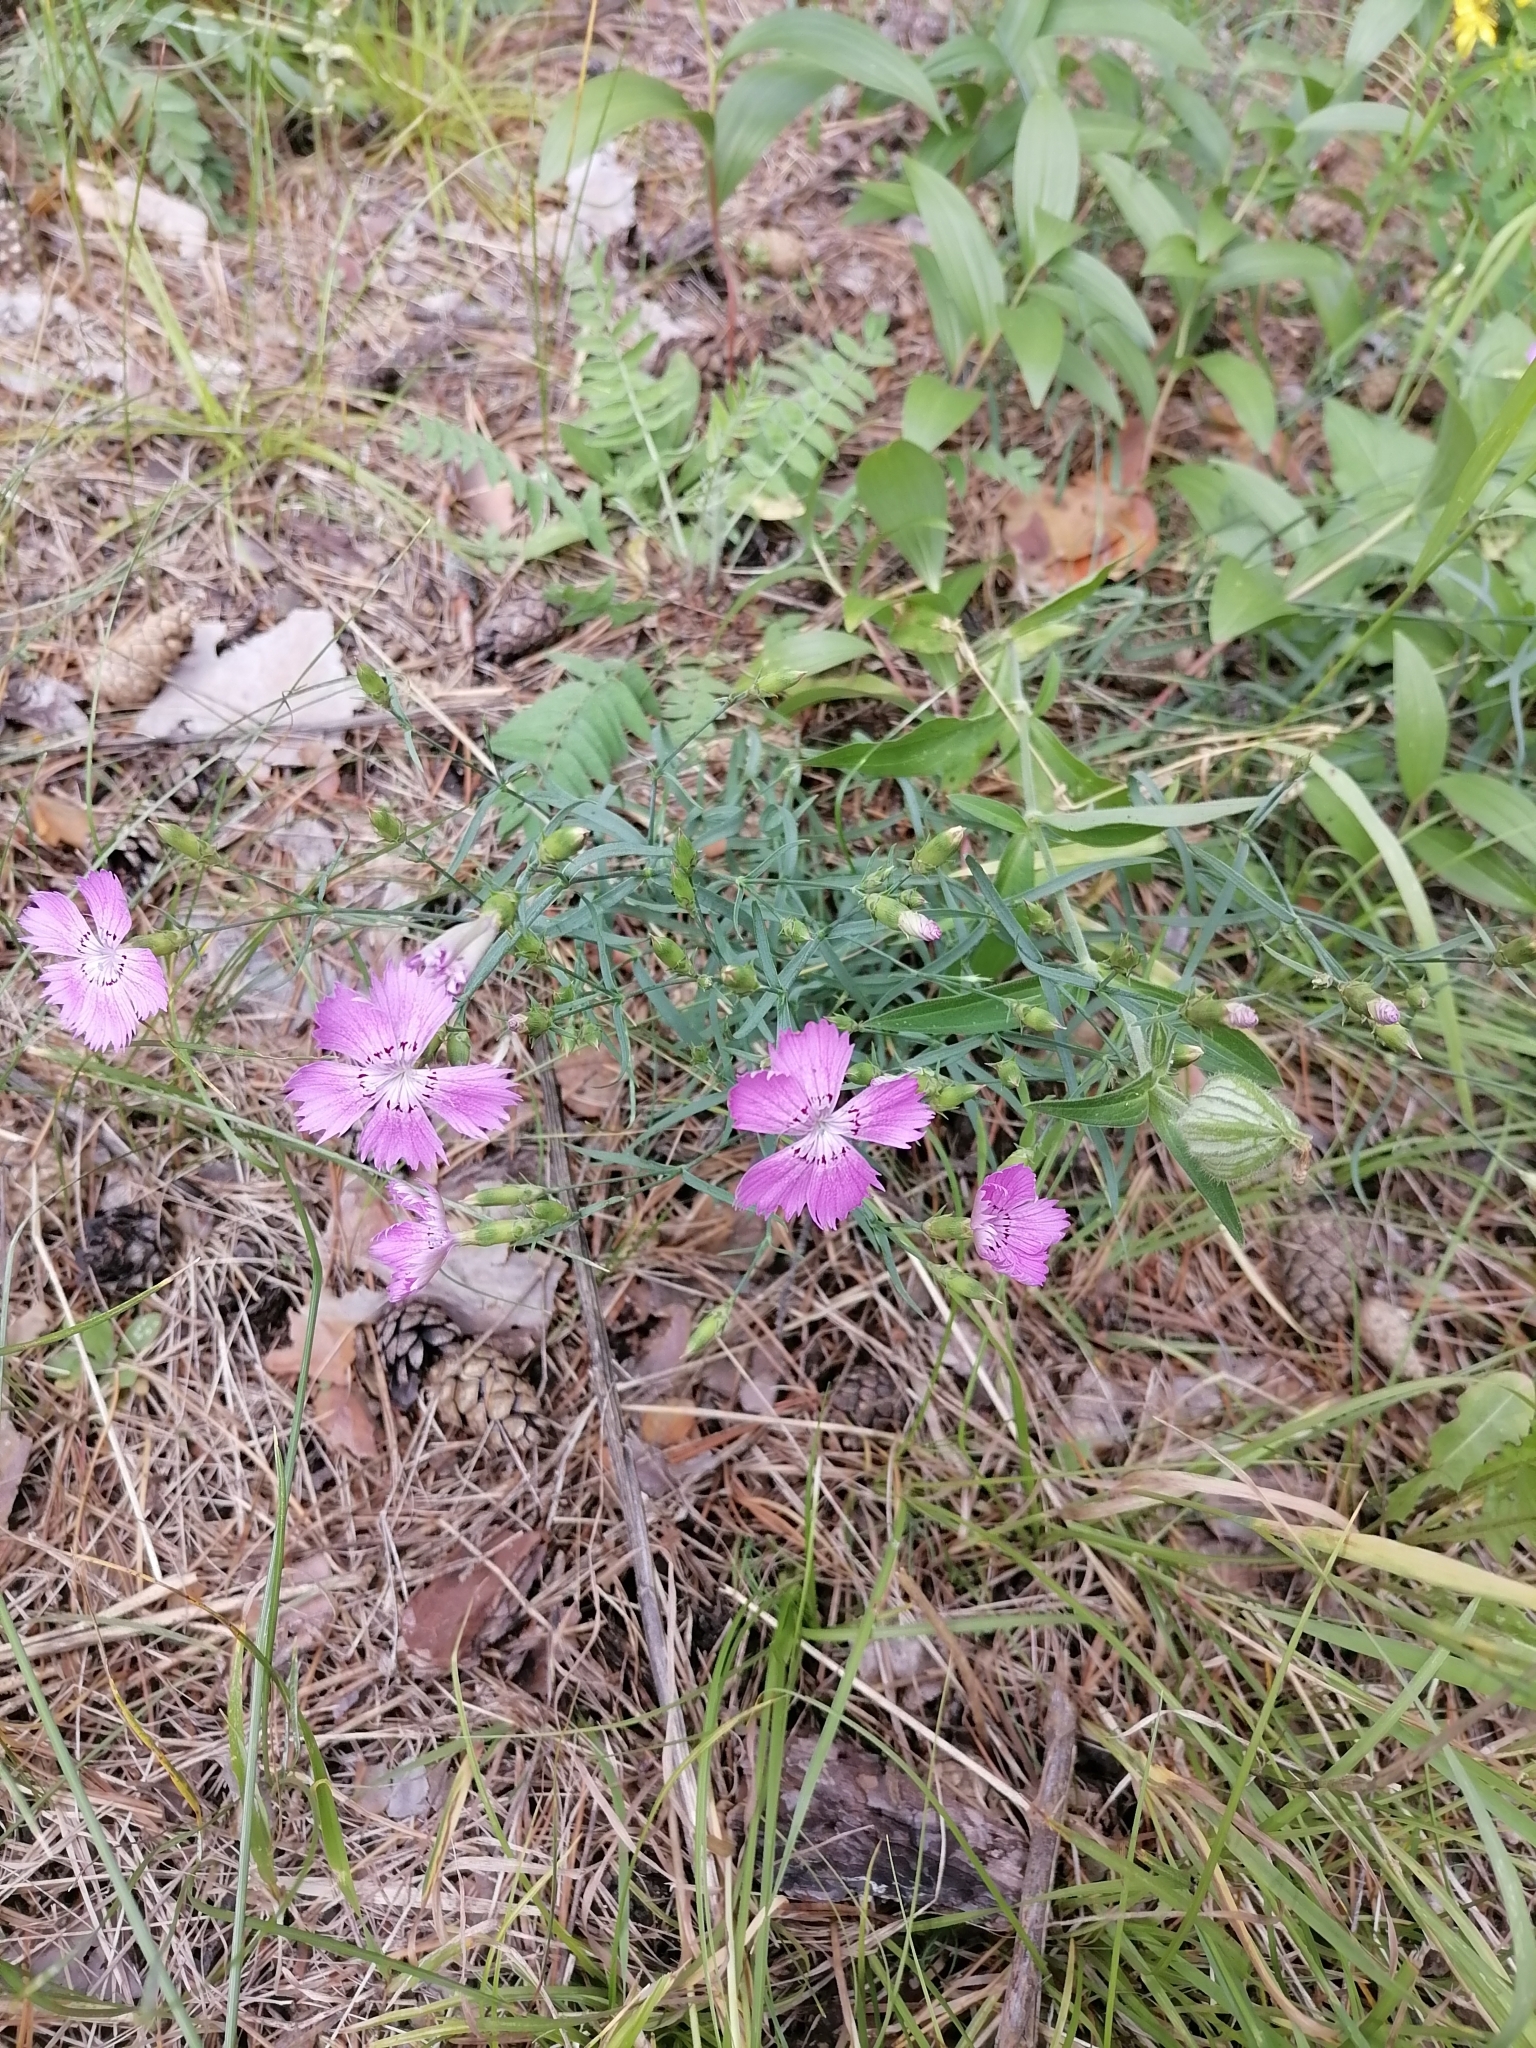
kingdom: Plantae
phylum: Tracheophyta
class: Magnoliopsida
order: Caryophyllales
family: Caryophyllaceae
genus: Dianthus
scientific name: Dianthus chinensis
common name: Rainbow pink
